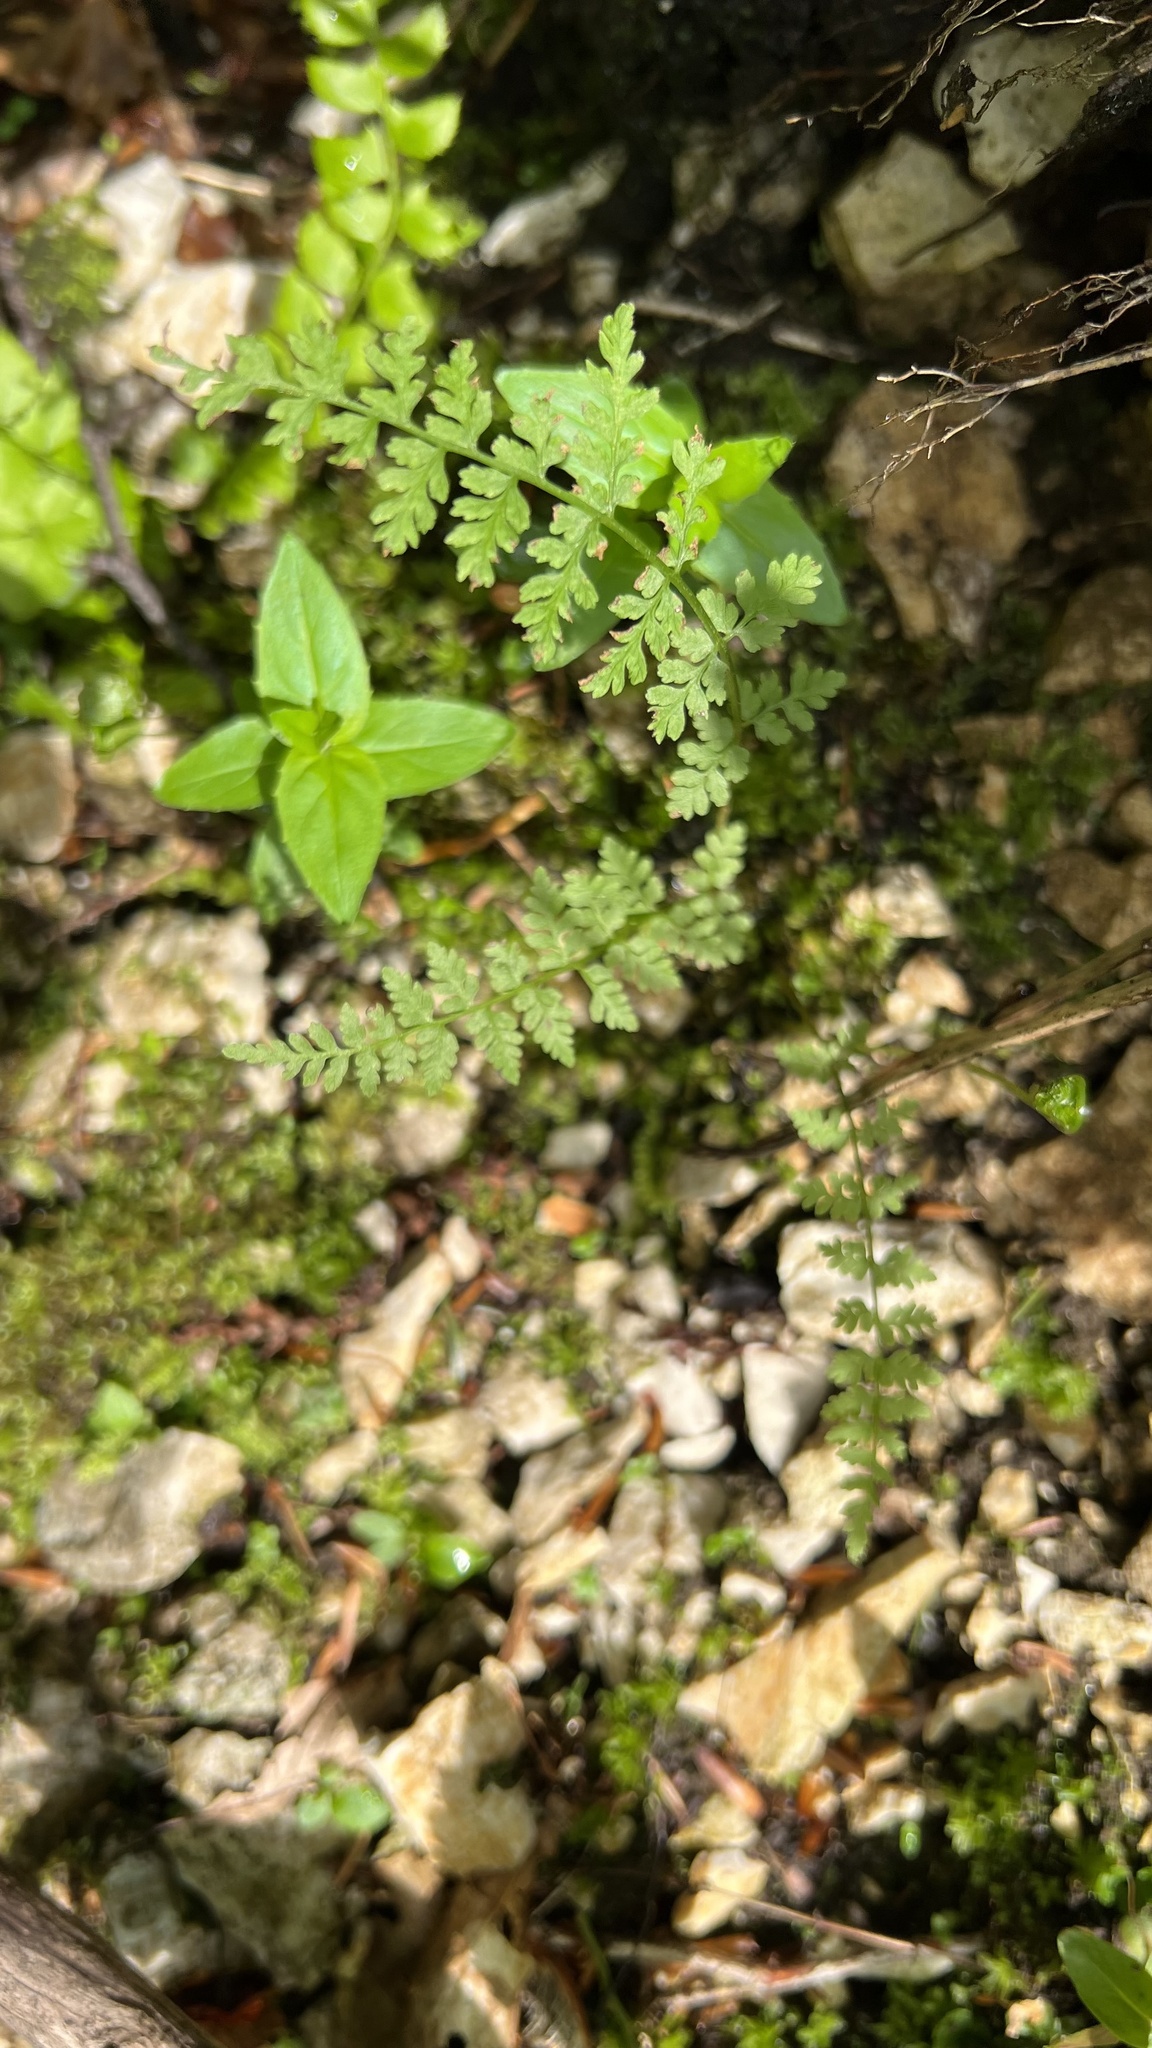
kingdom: Plantae
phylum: Tracheophyta
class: Polypodiopsida
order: Polypodiales
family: Cystopteridaceae
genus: Cystopteris
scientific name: Cystopteris fragilis
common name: Brittle bladder fern
